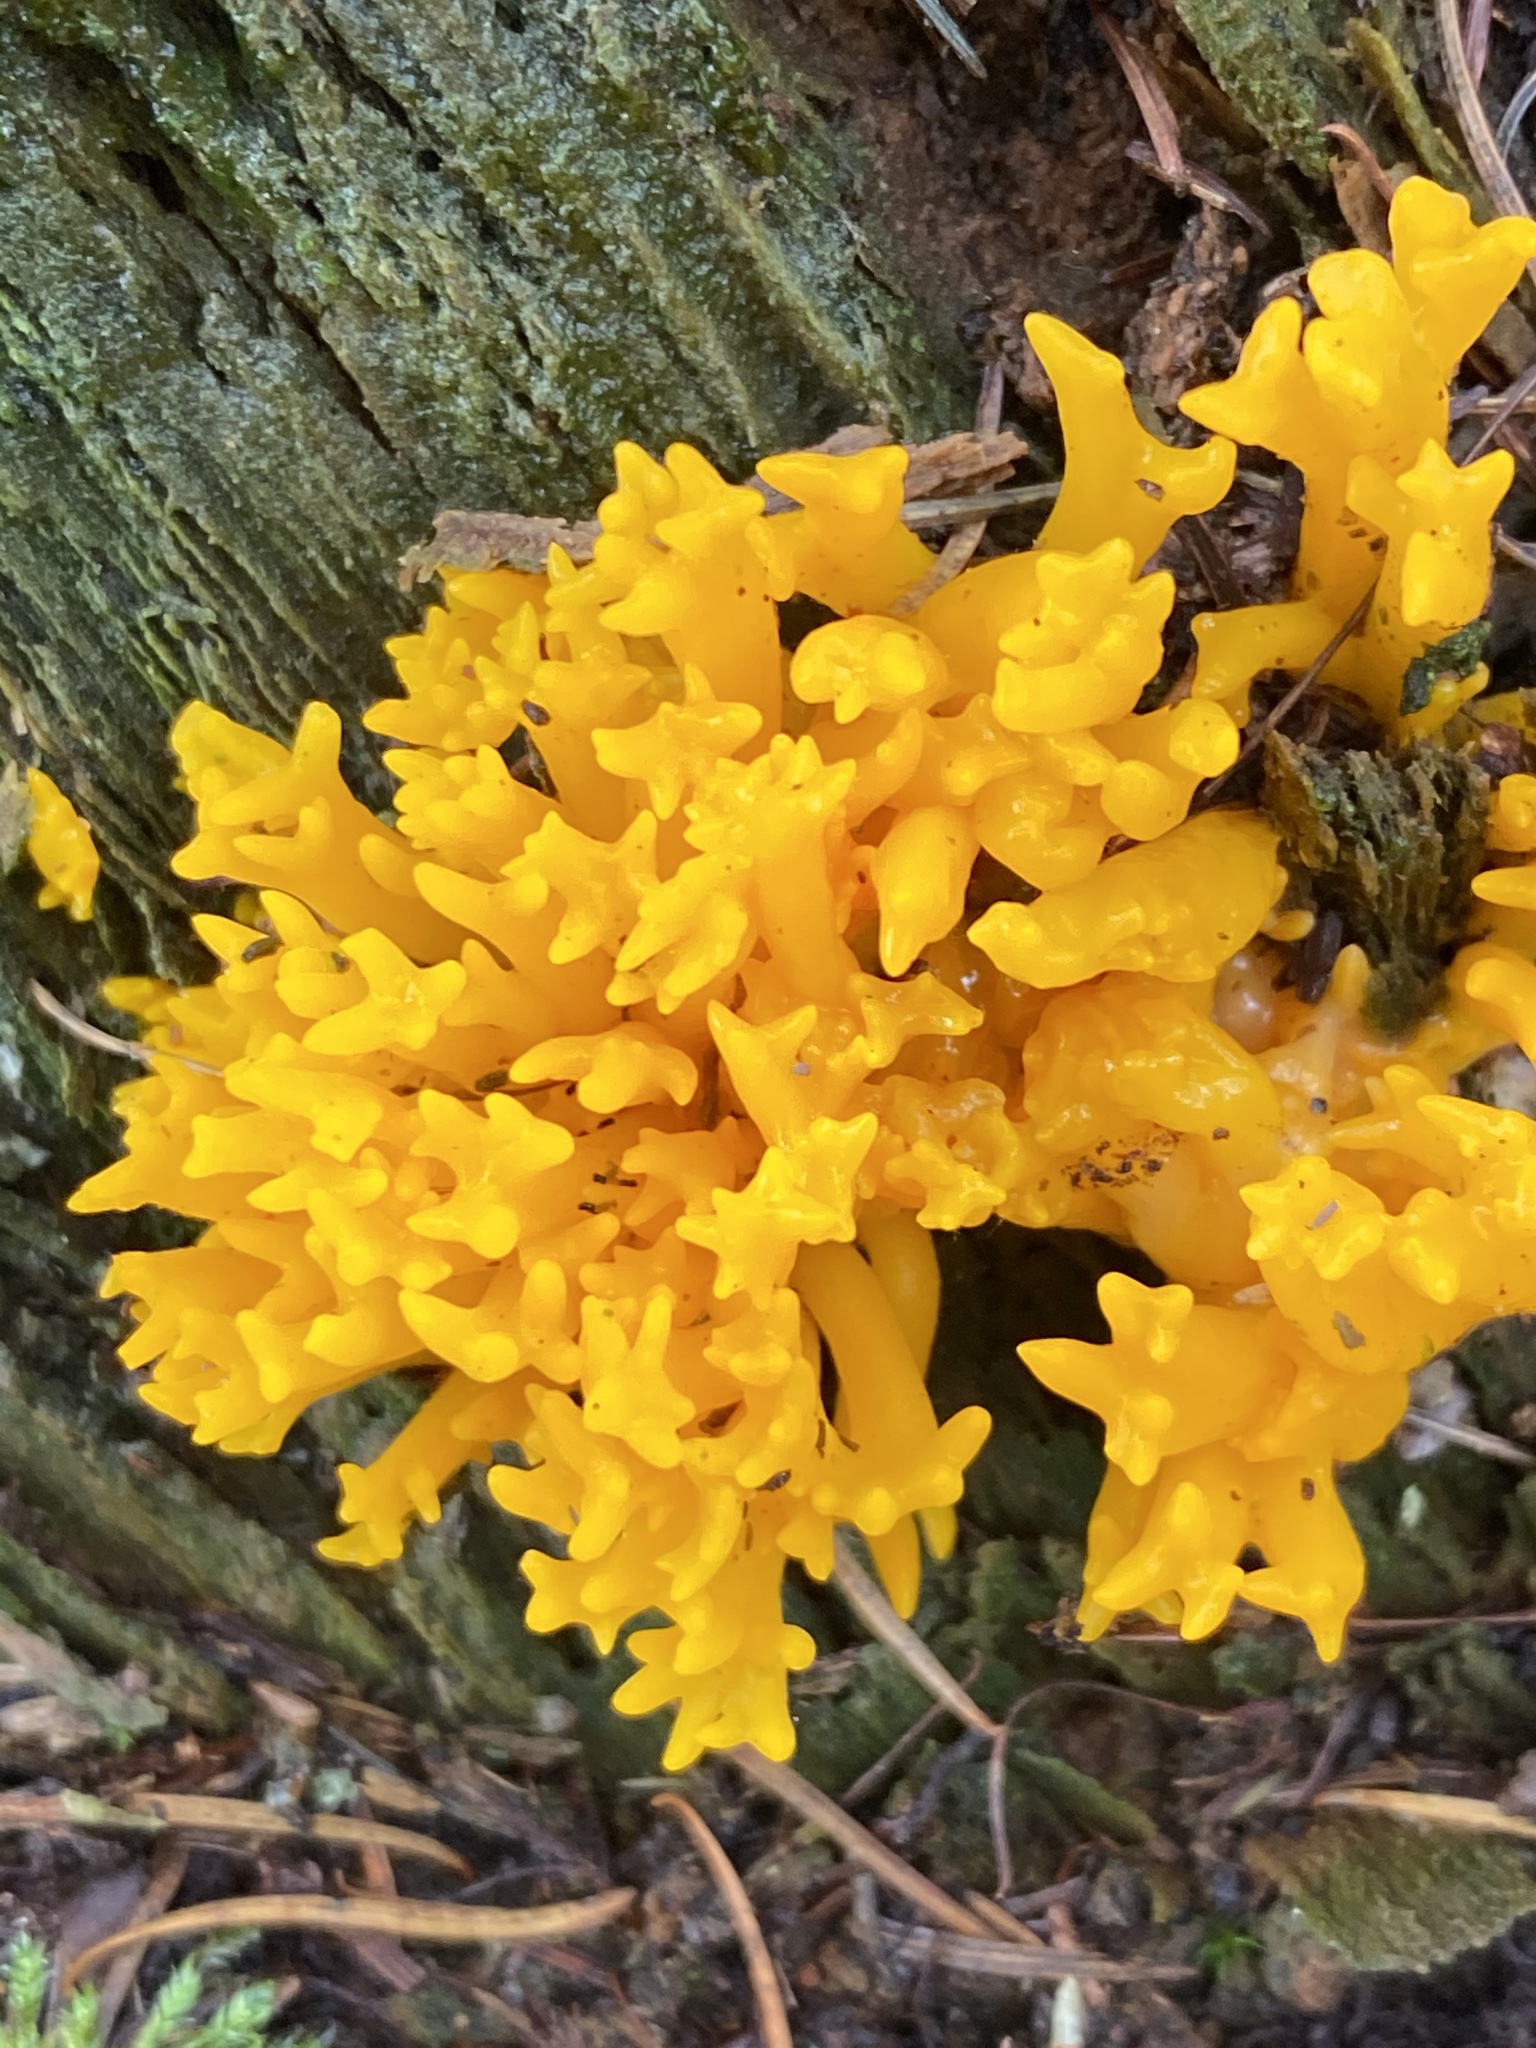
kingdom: Fungi
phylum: Basidiomycota
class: Dacrymycetes
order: Dacrymycetales
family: Dacrymycetaceae
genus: Calocera
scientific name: Calocera viscosa
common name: Yellow stagshorn
